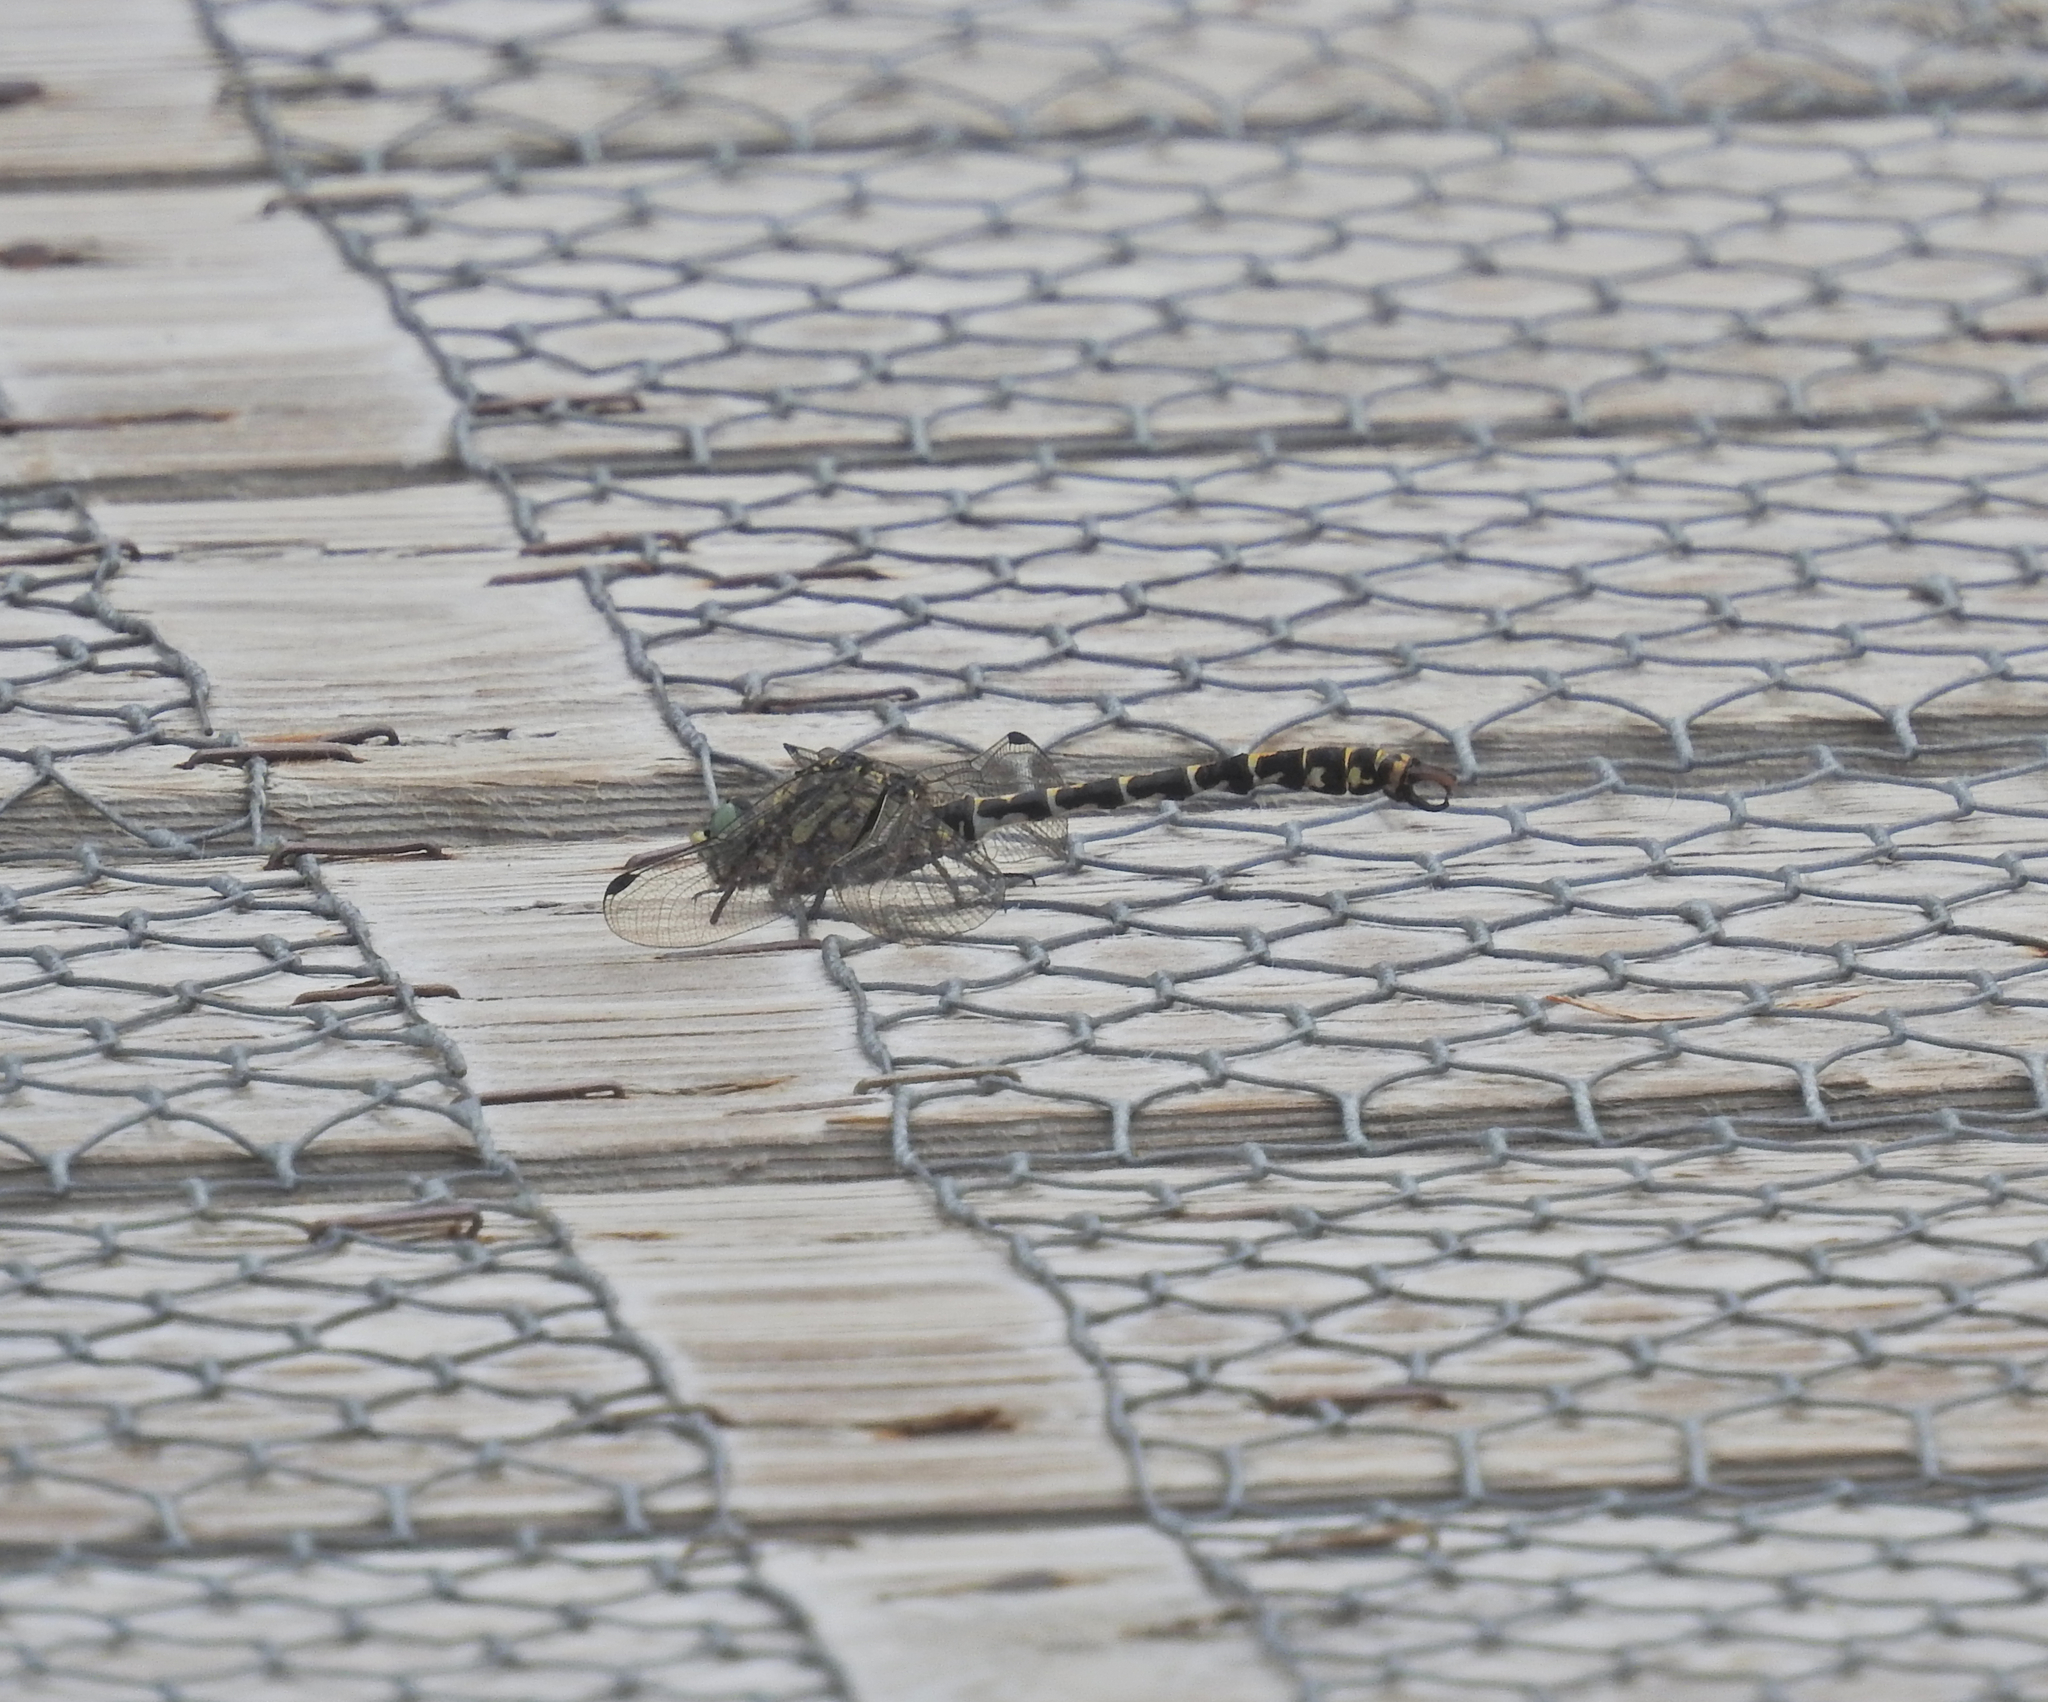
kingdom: Animalia
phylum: Arthropoda
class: Insecta
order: Odonata
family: Gomphidae
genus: Onychogomphus
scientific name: Onychogomphus forcipatus
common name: Small pincertail
